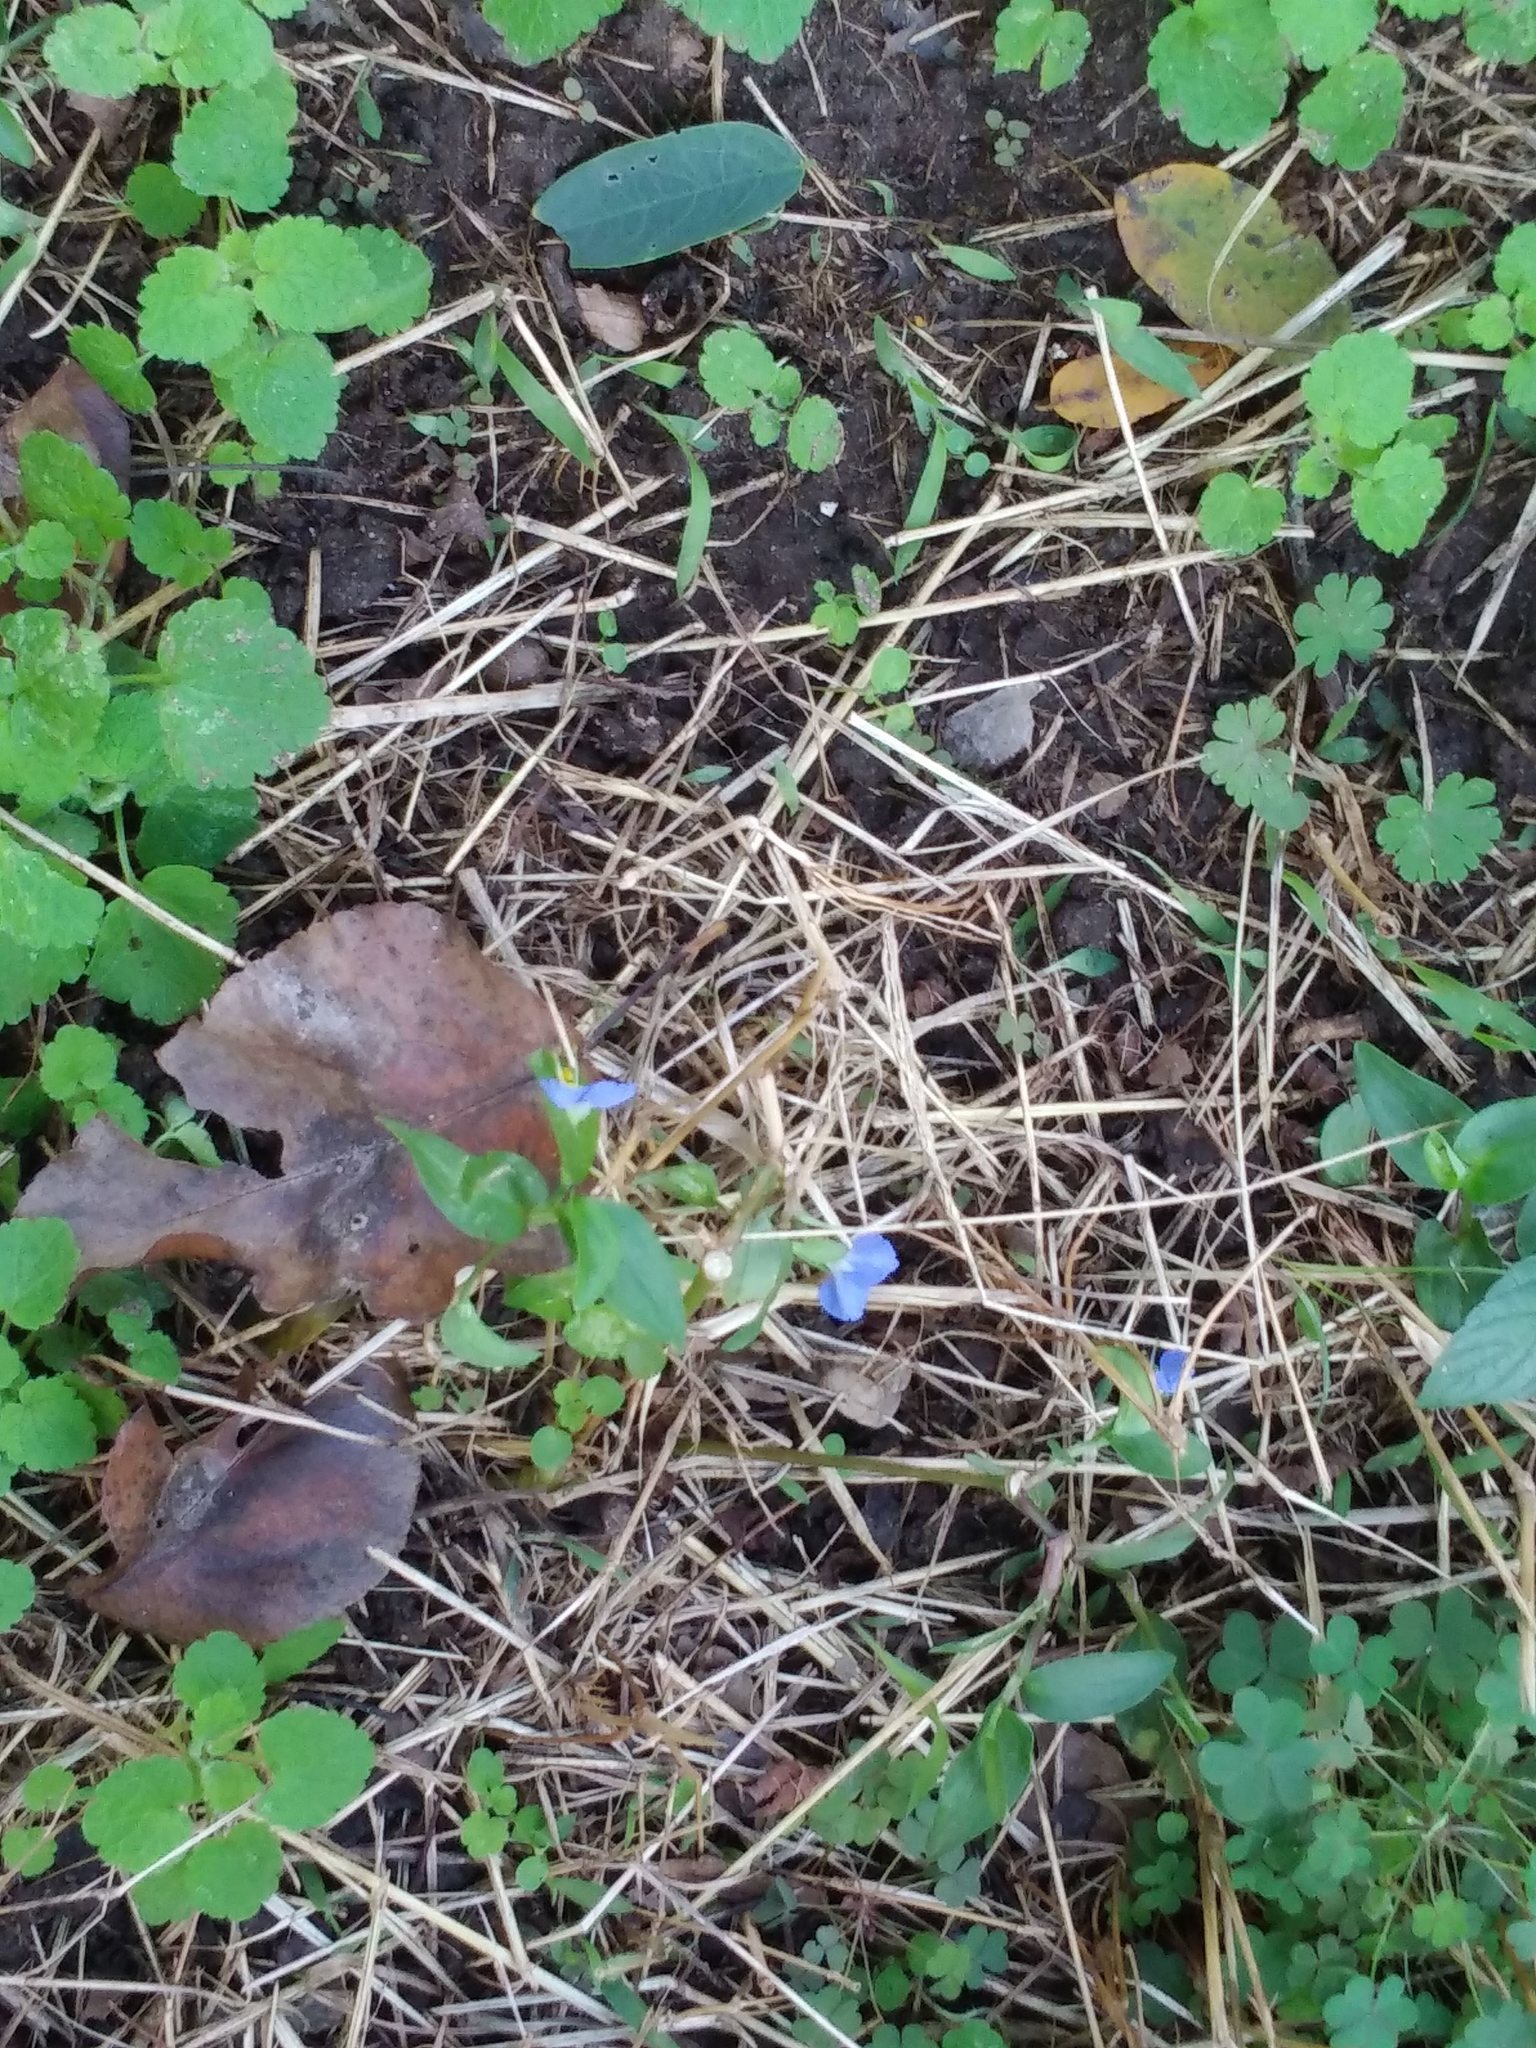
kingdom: Plantae
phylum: Tracheophyta
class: Liliopsida
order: Commelinales
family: Commelinaceae
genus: Commelina
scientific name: Commelina communis
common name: Asiatic dayflower
